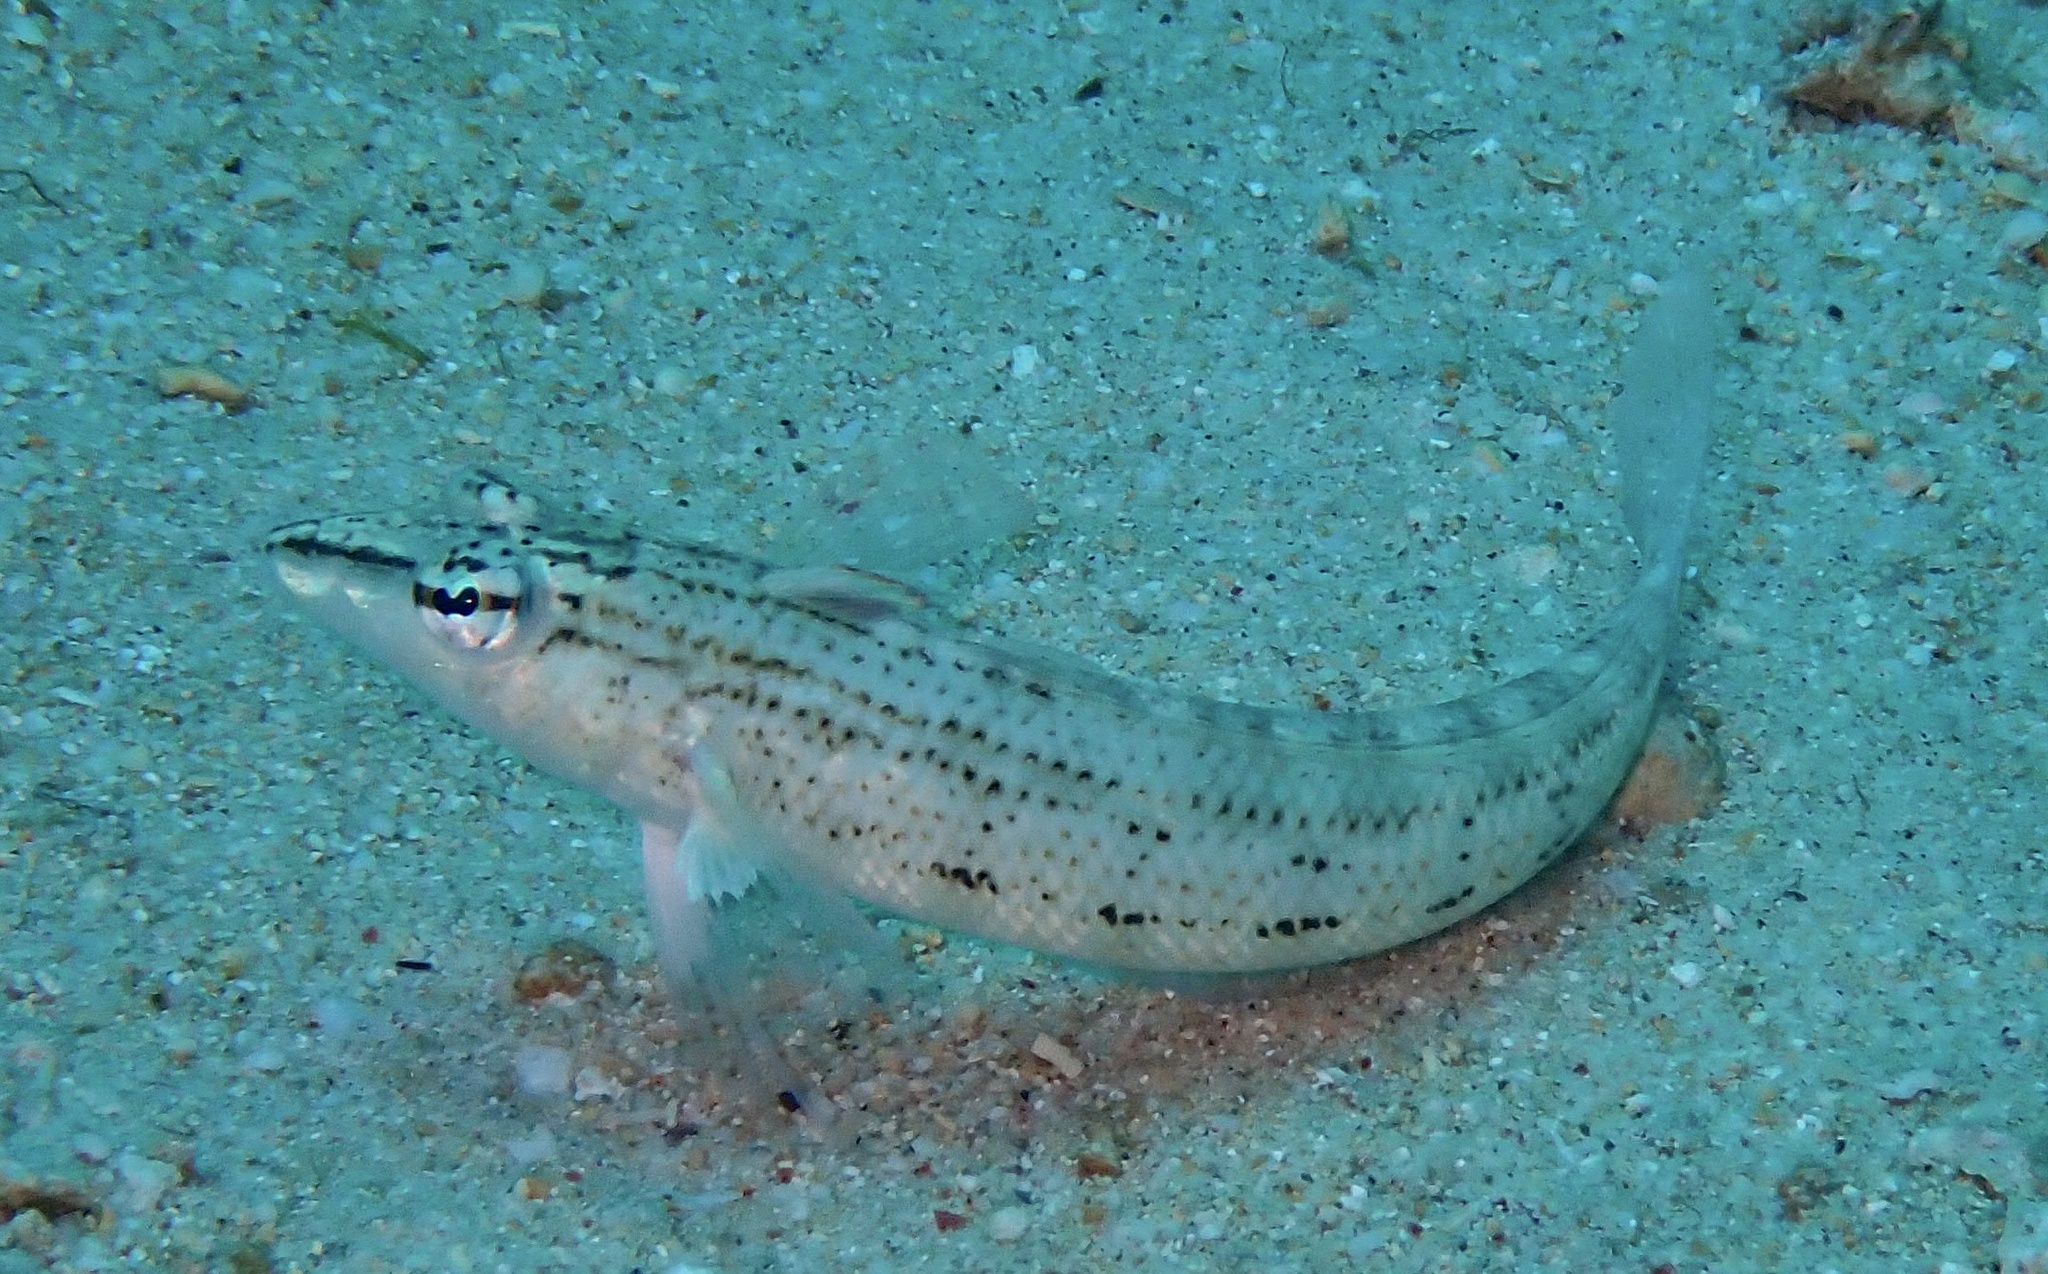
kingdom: Animalia
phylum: Chordata
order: Perciformes
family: Pinguipedidae
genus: Parapercis
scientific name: Parapercis lineopunctata
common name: Nosestripe sandperch
